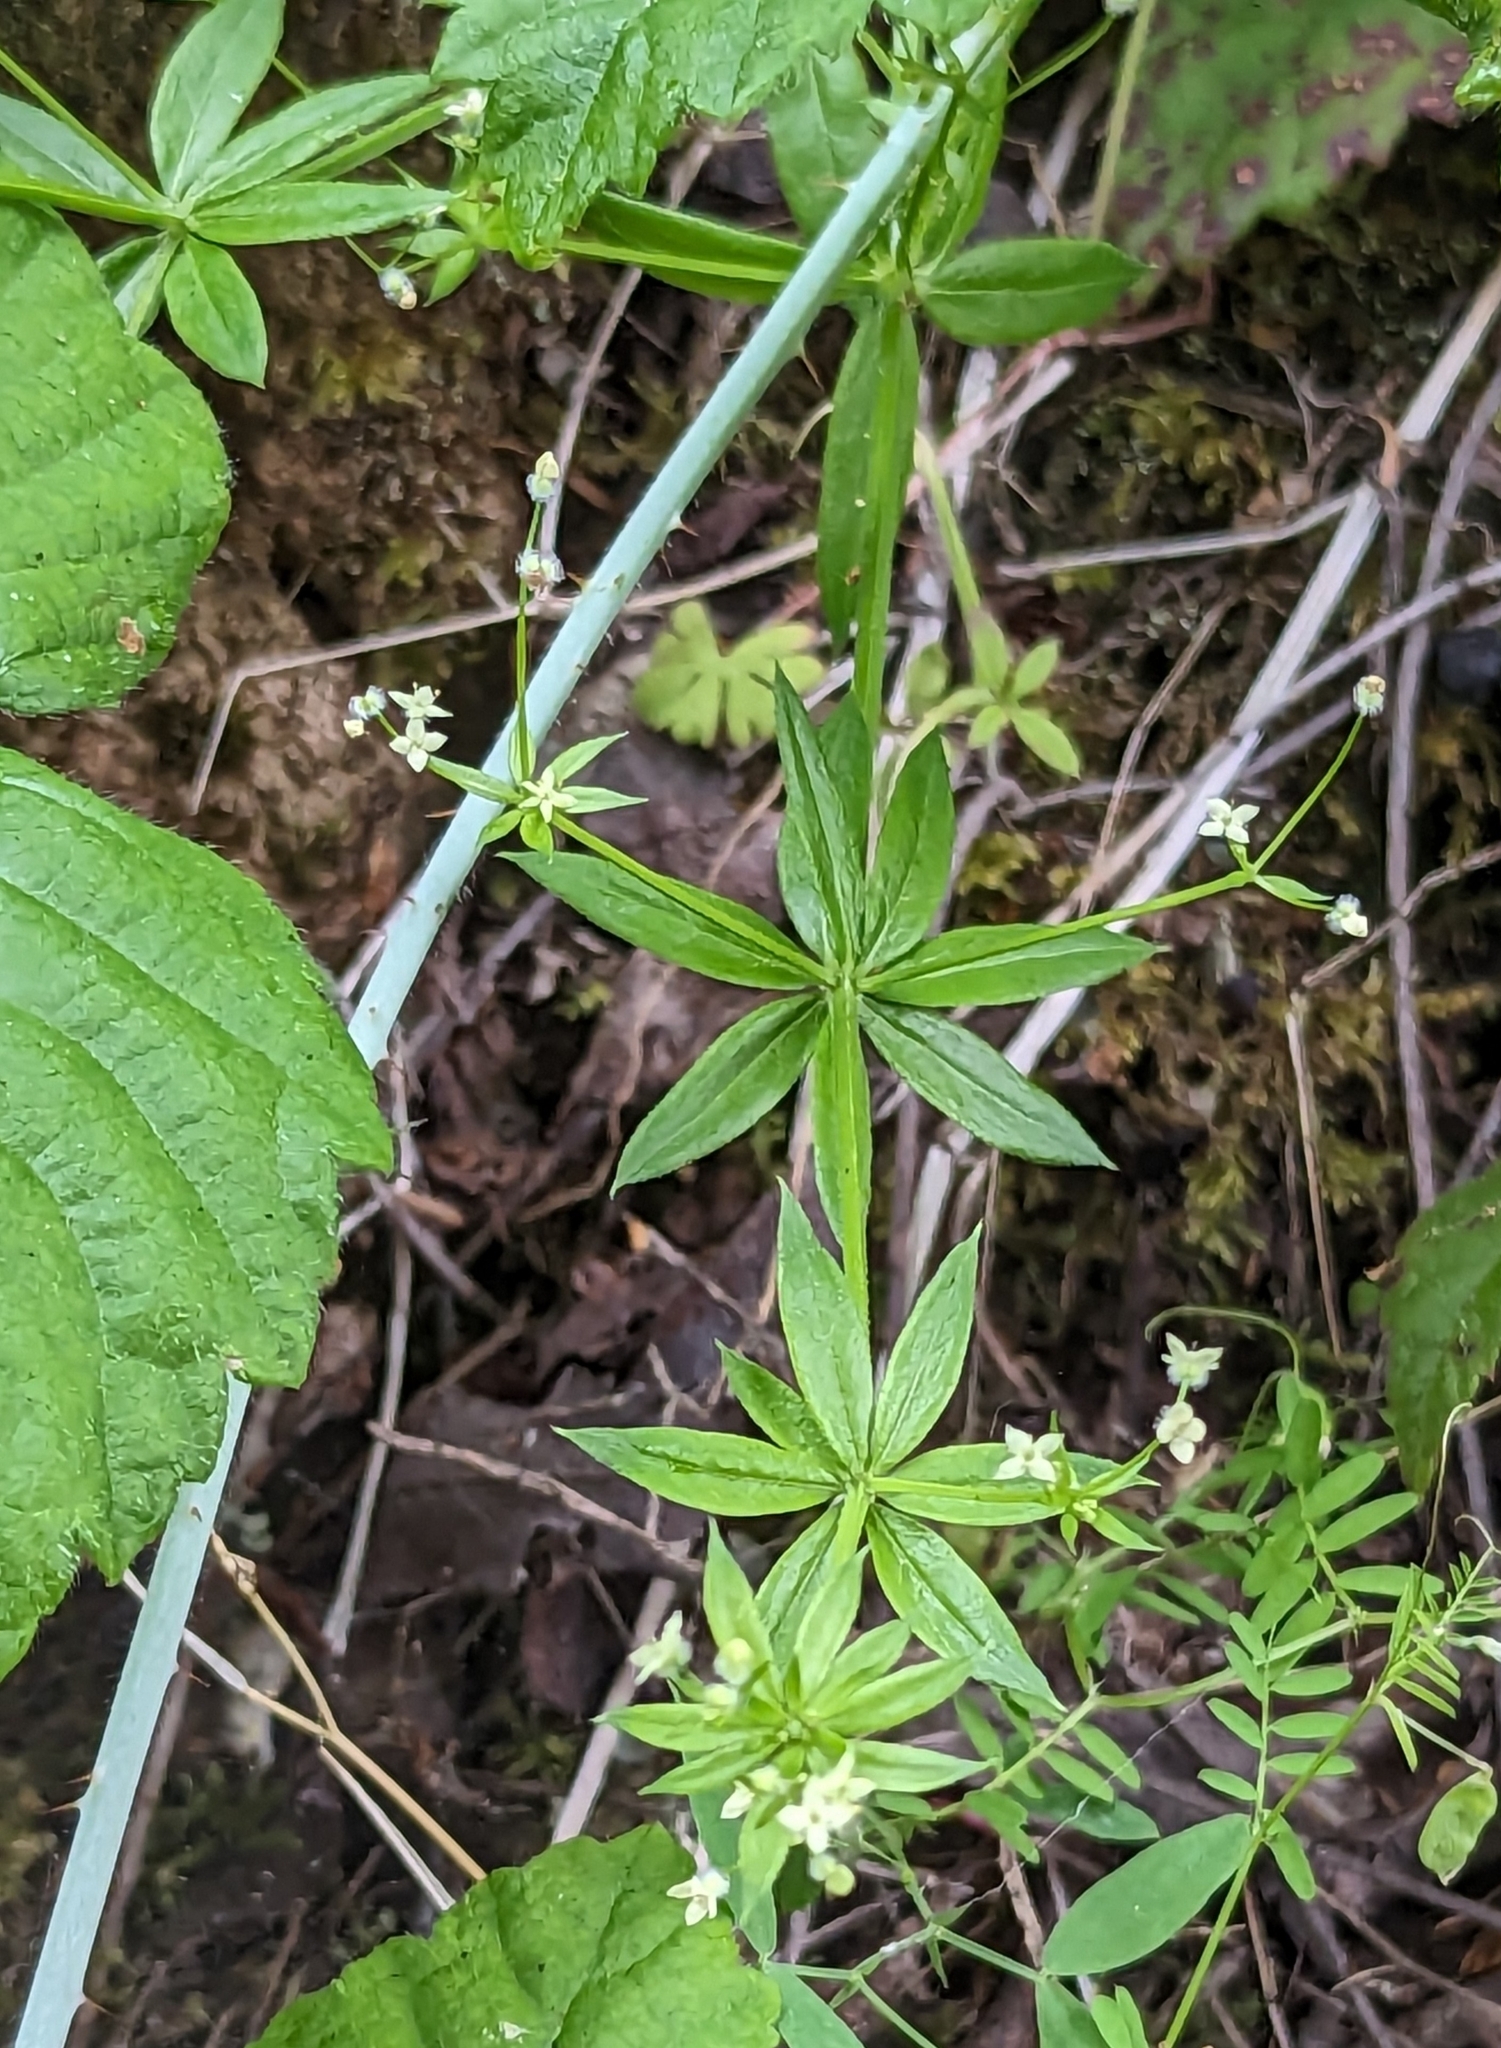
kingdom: Plantae
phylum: Tracheophyta
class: Magnoliopsida
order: Gentianales
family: Rubiaceae
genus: Galium
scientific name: Galium triflorum
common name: Fragrant bedstraw
